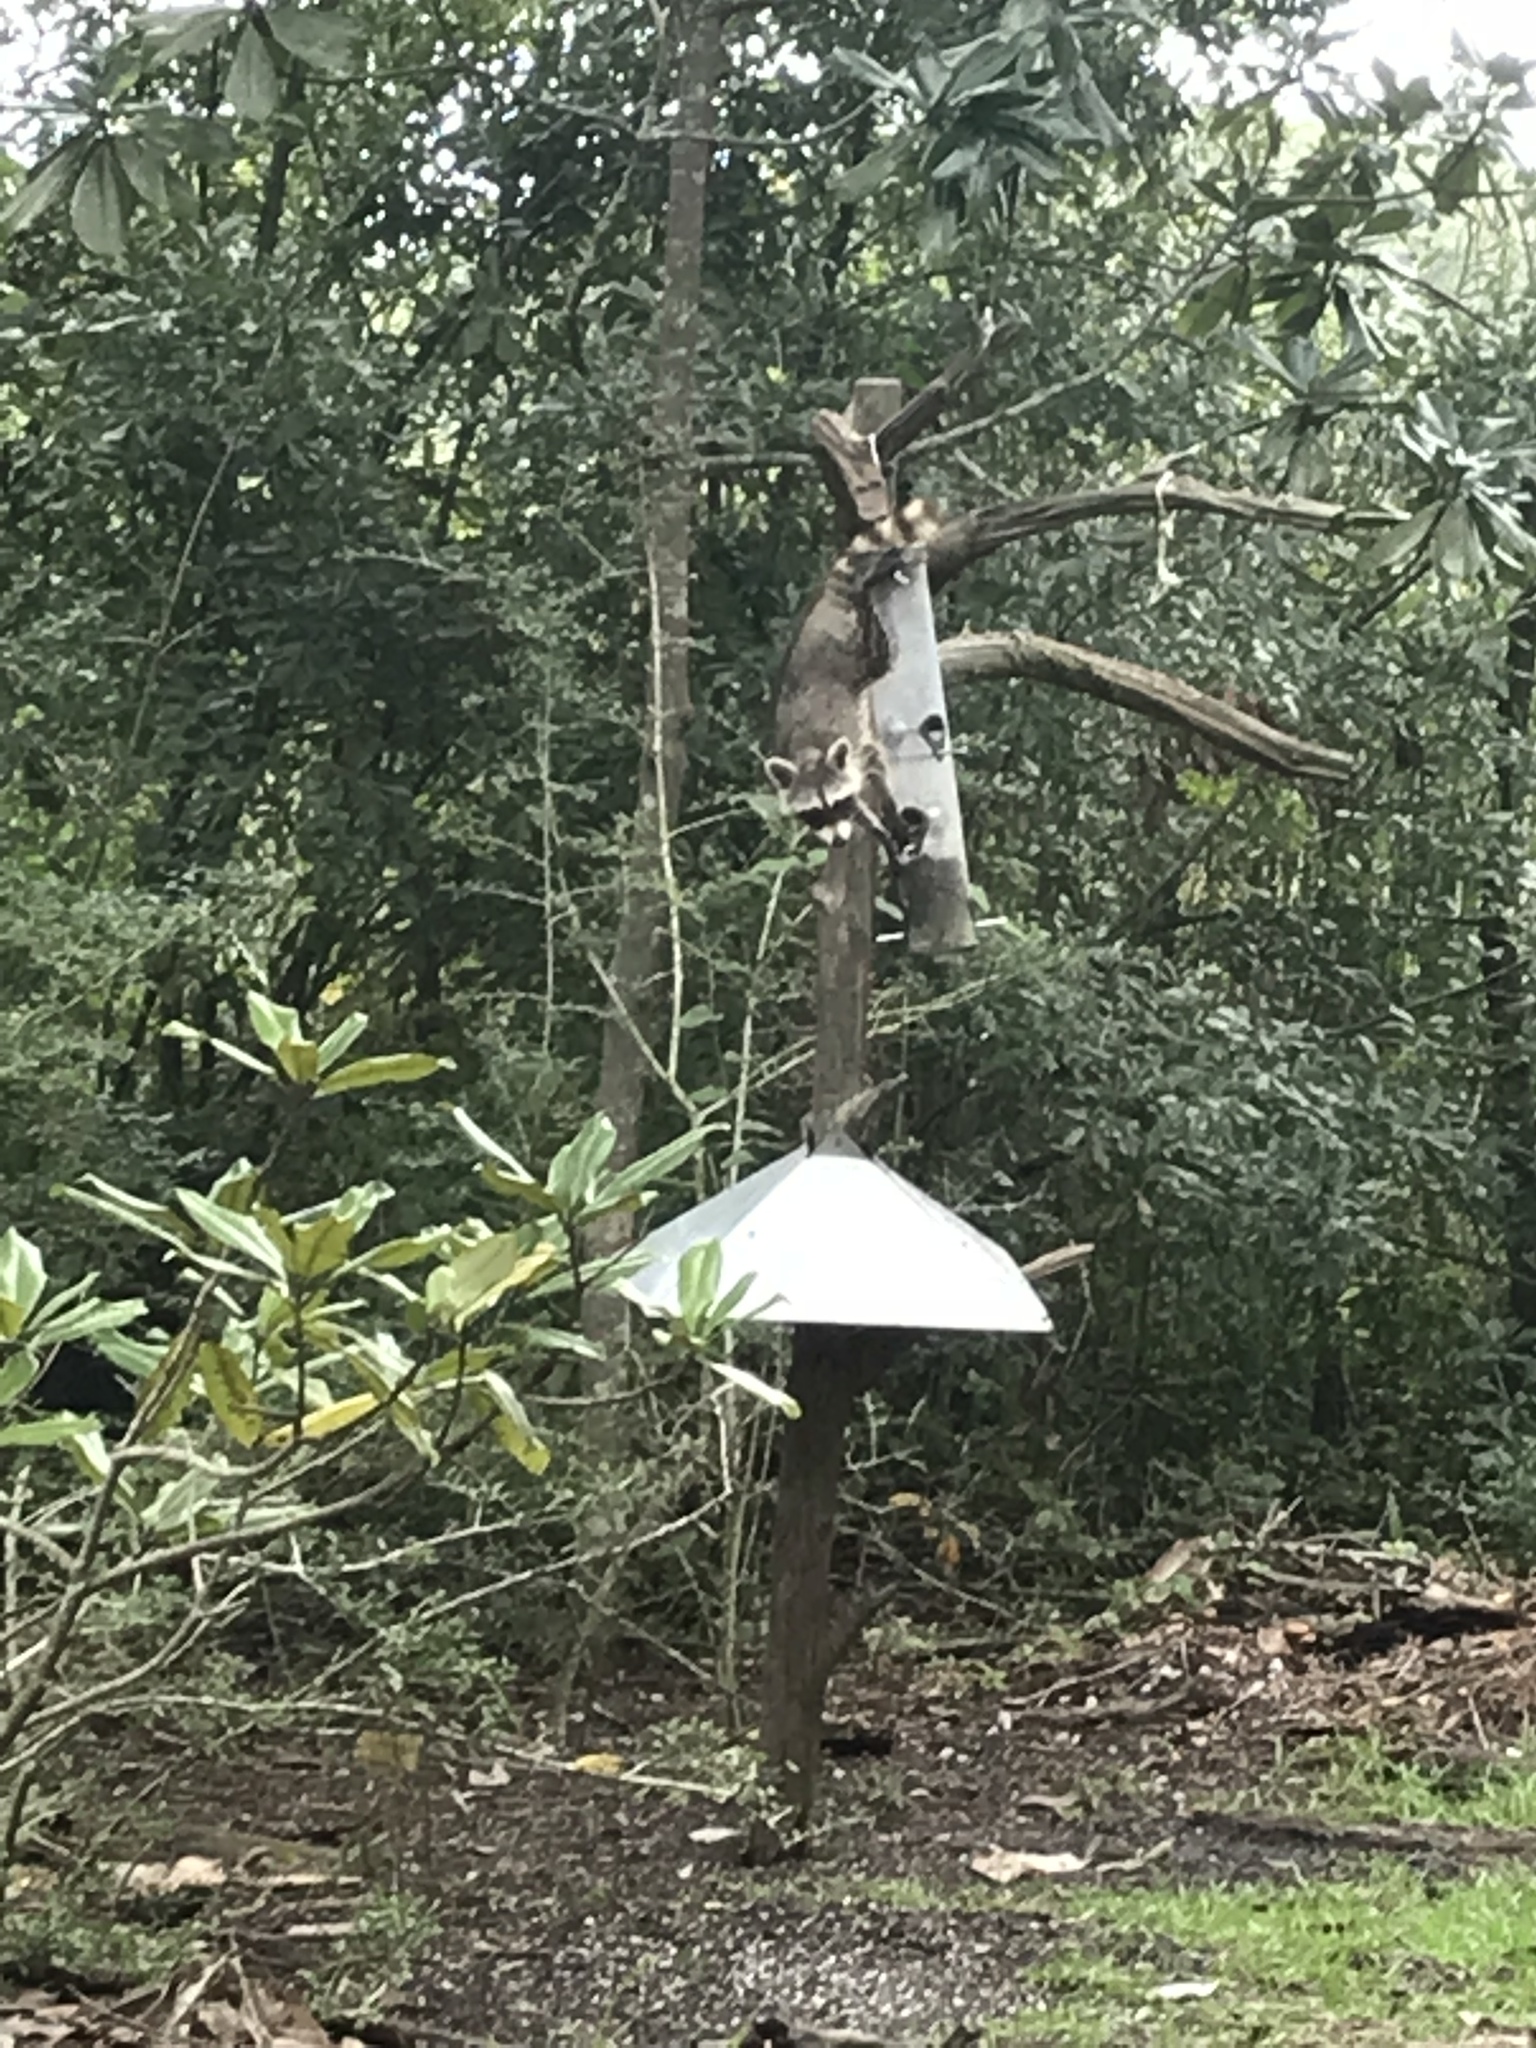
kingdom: Animalia
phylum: Chordata
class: Mammalia
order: Carnivora
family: Procyonidae
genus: Procyon
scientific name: Procyon lotor
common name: Raccoon
